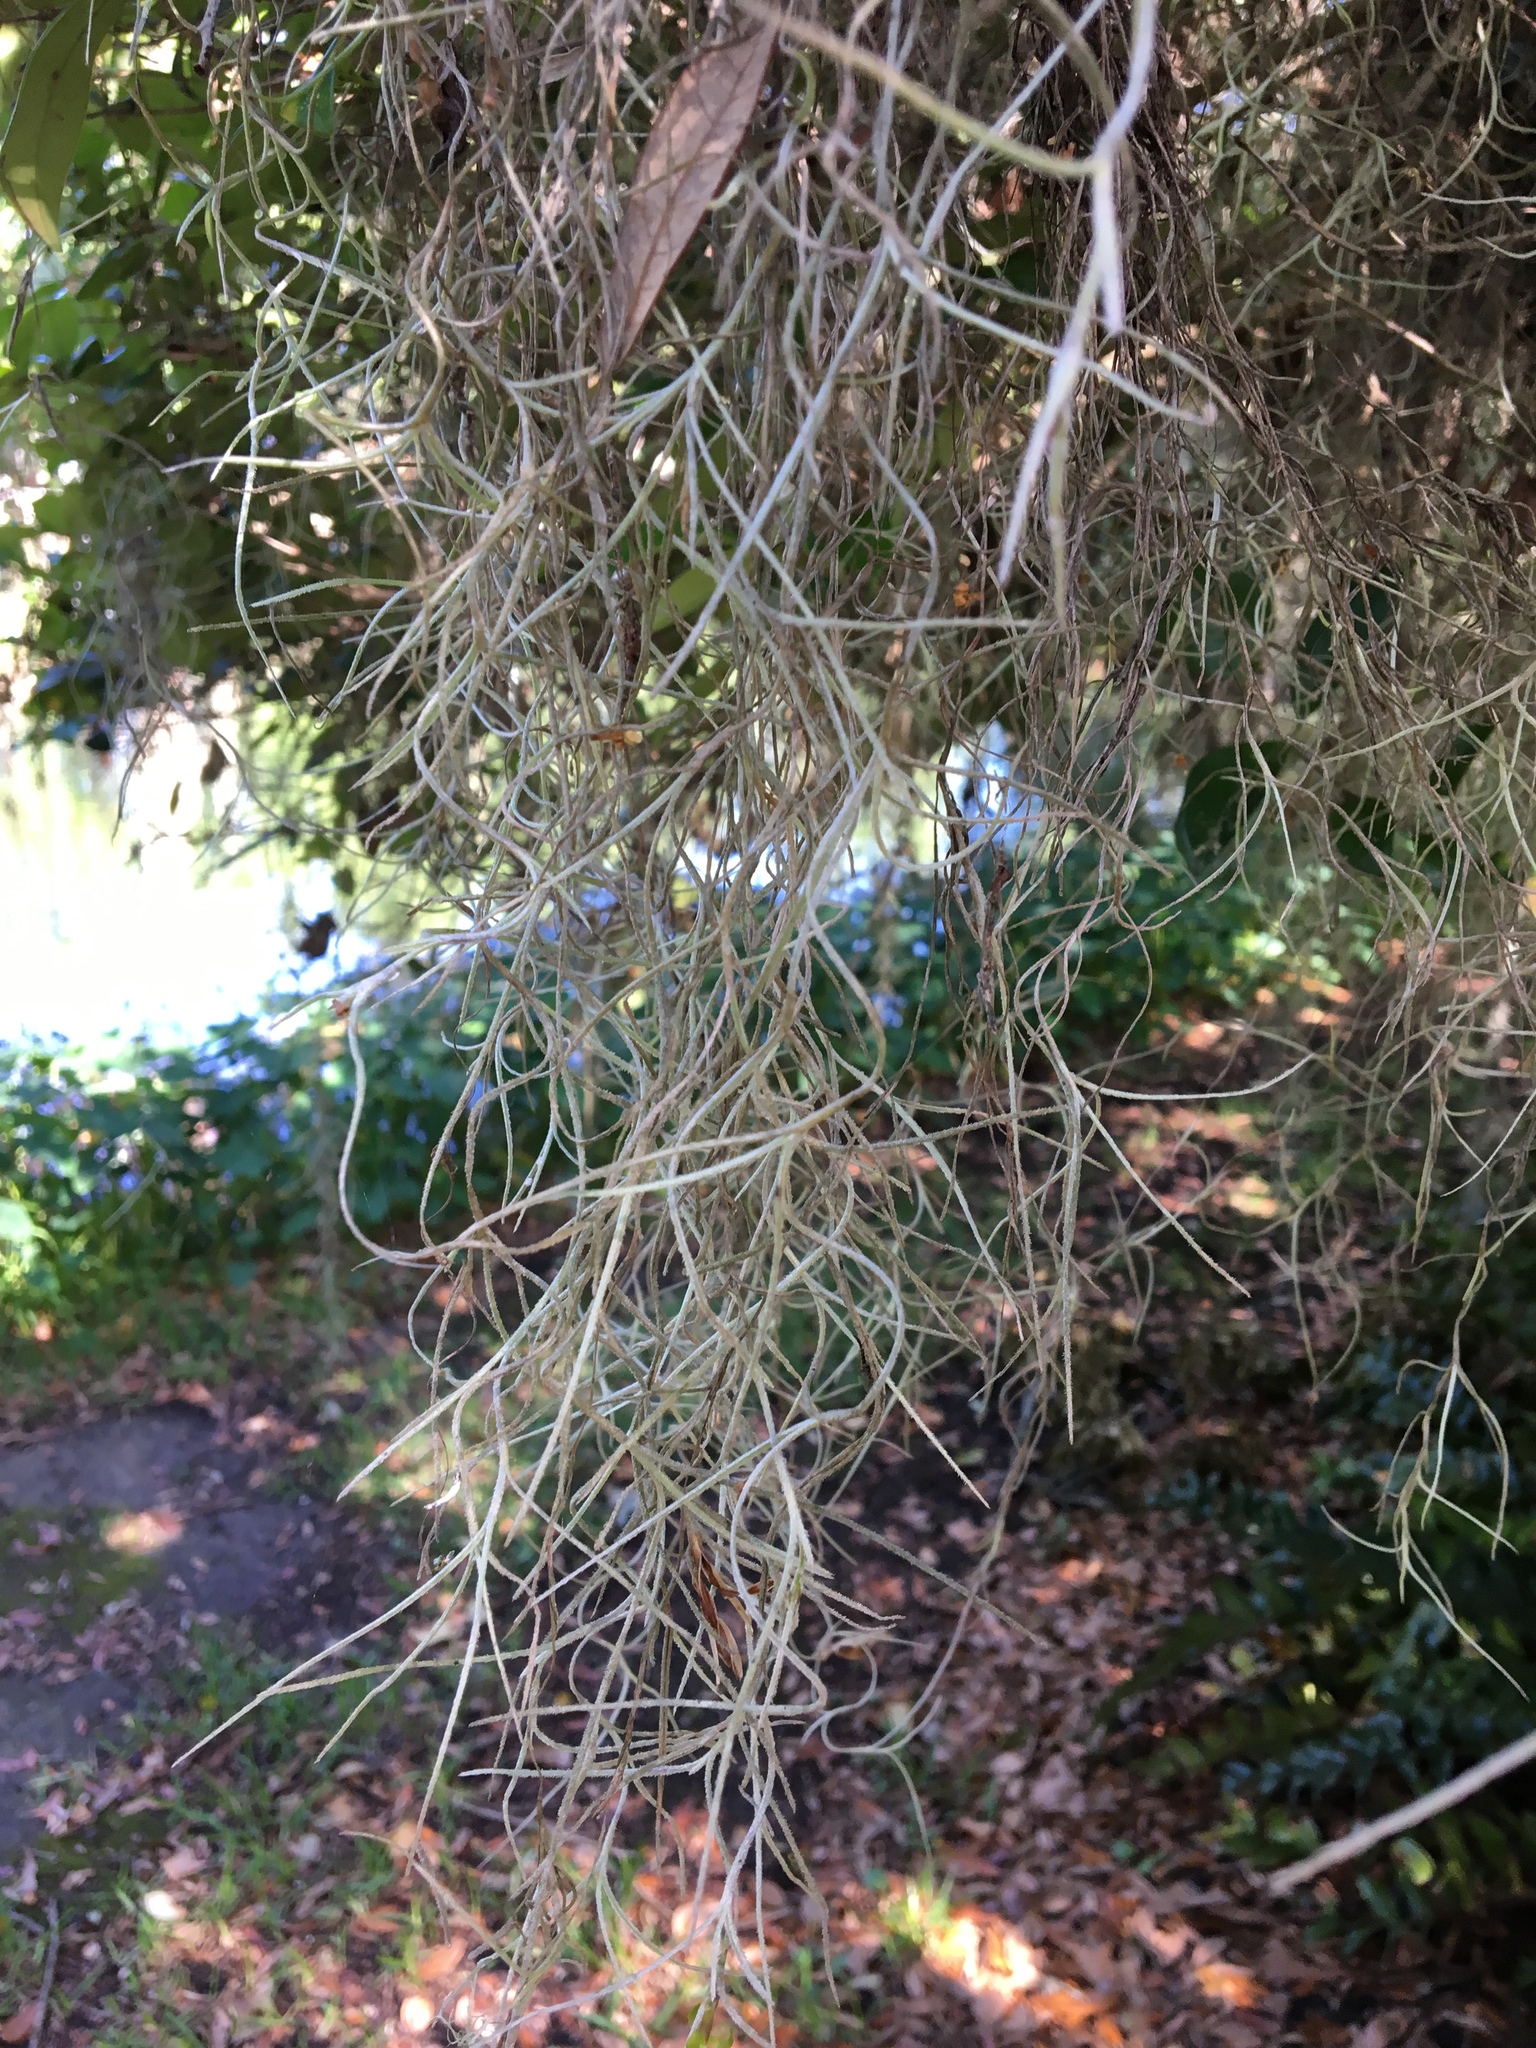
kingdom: Plantae
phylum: Tracheophyta
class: Liliopsida
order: Poales
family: Bromeliaceae
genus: Tillandsia
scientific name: Tillandsia usneoides
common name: Spanish moss
